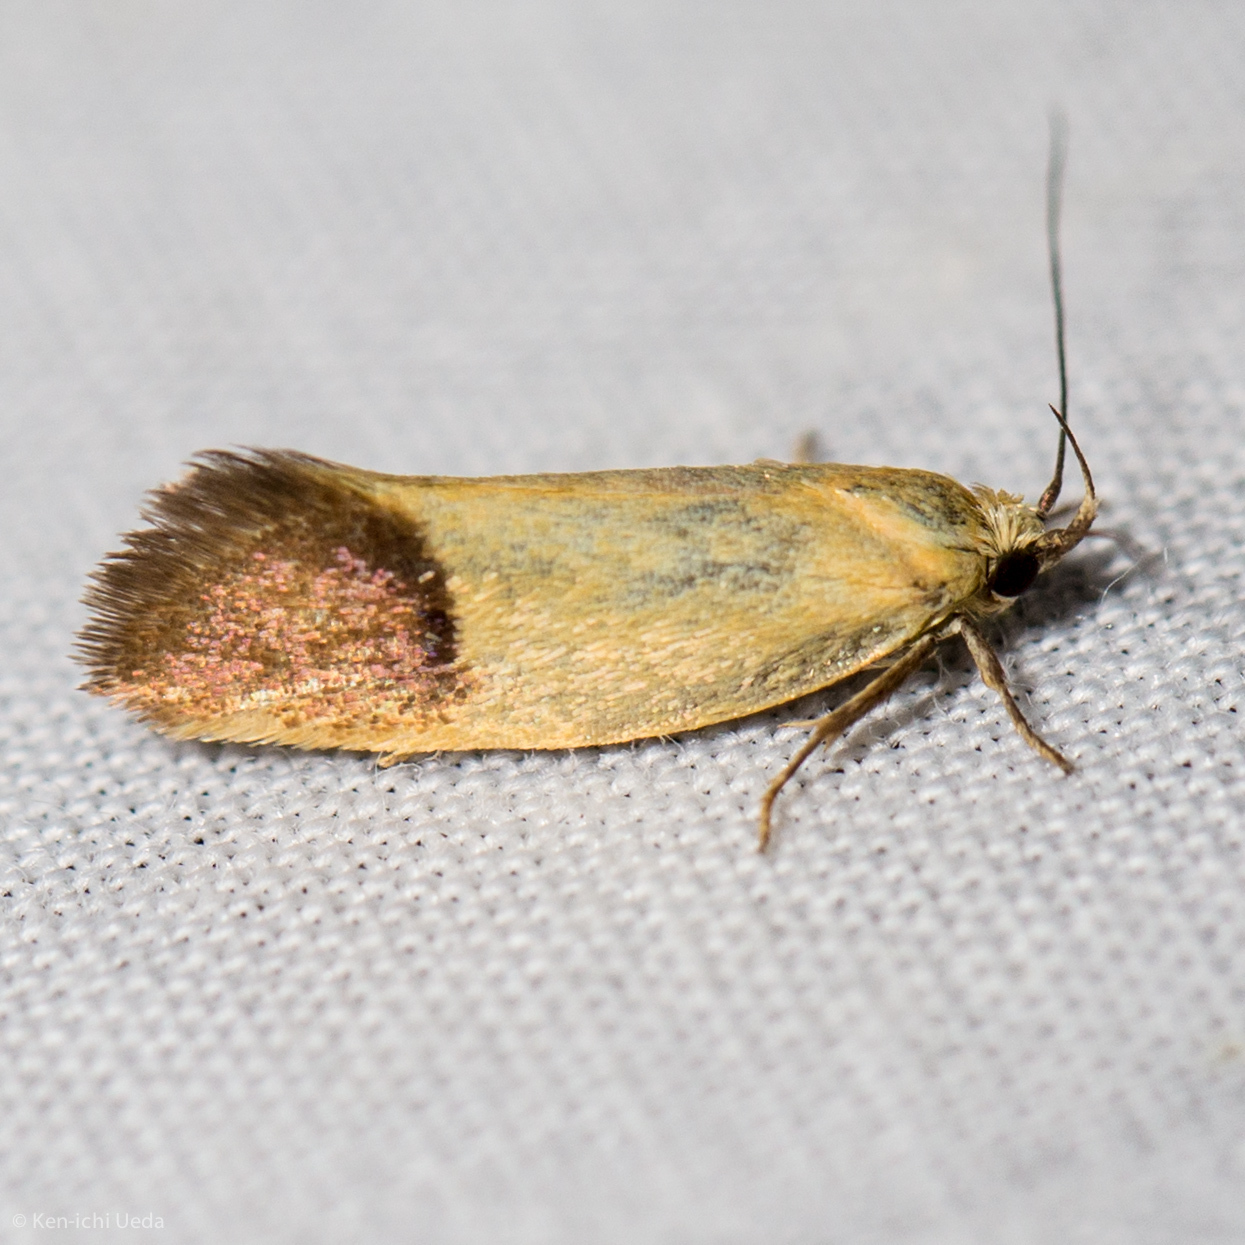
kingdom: Animalia
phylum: Arthropoda
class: Insecta
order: Lepidoptera
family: Oecophoridae
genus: Merocroca
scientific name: Merocroca automima
